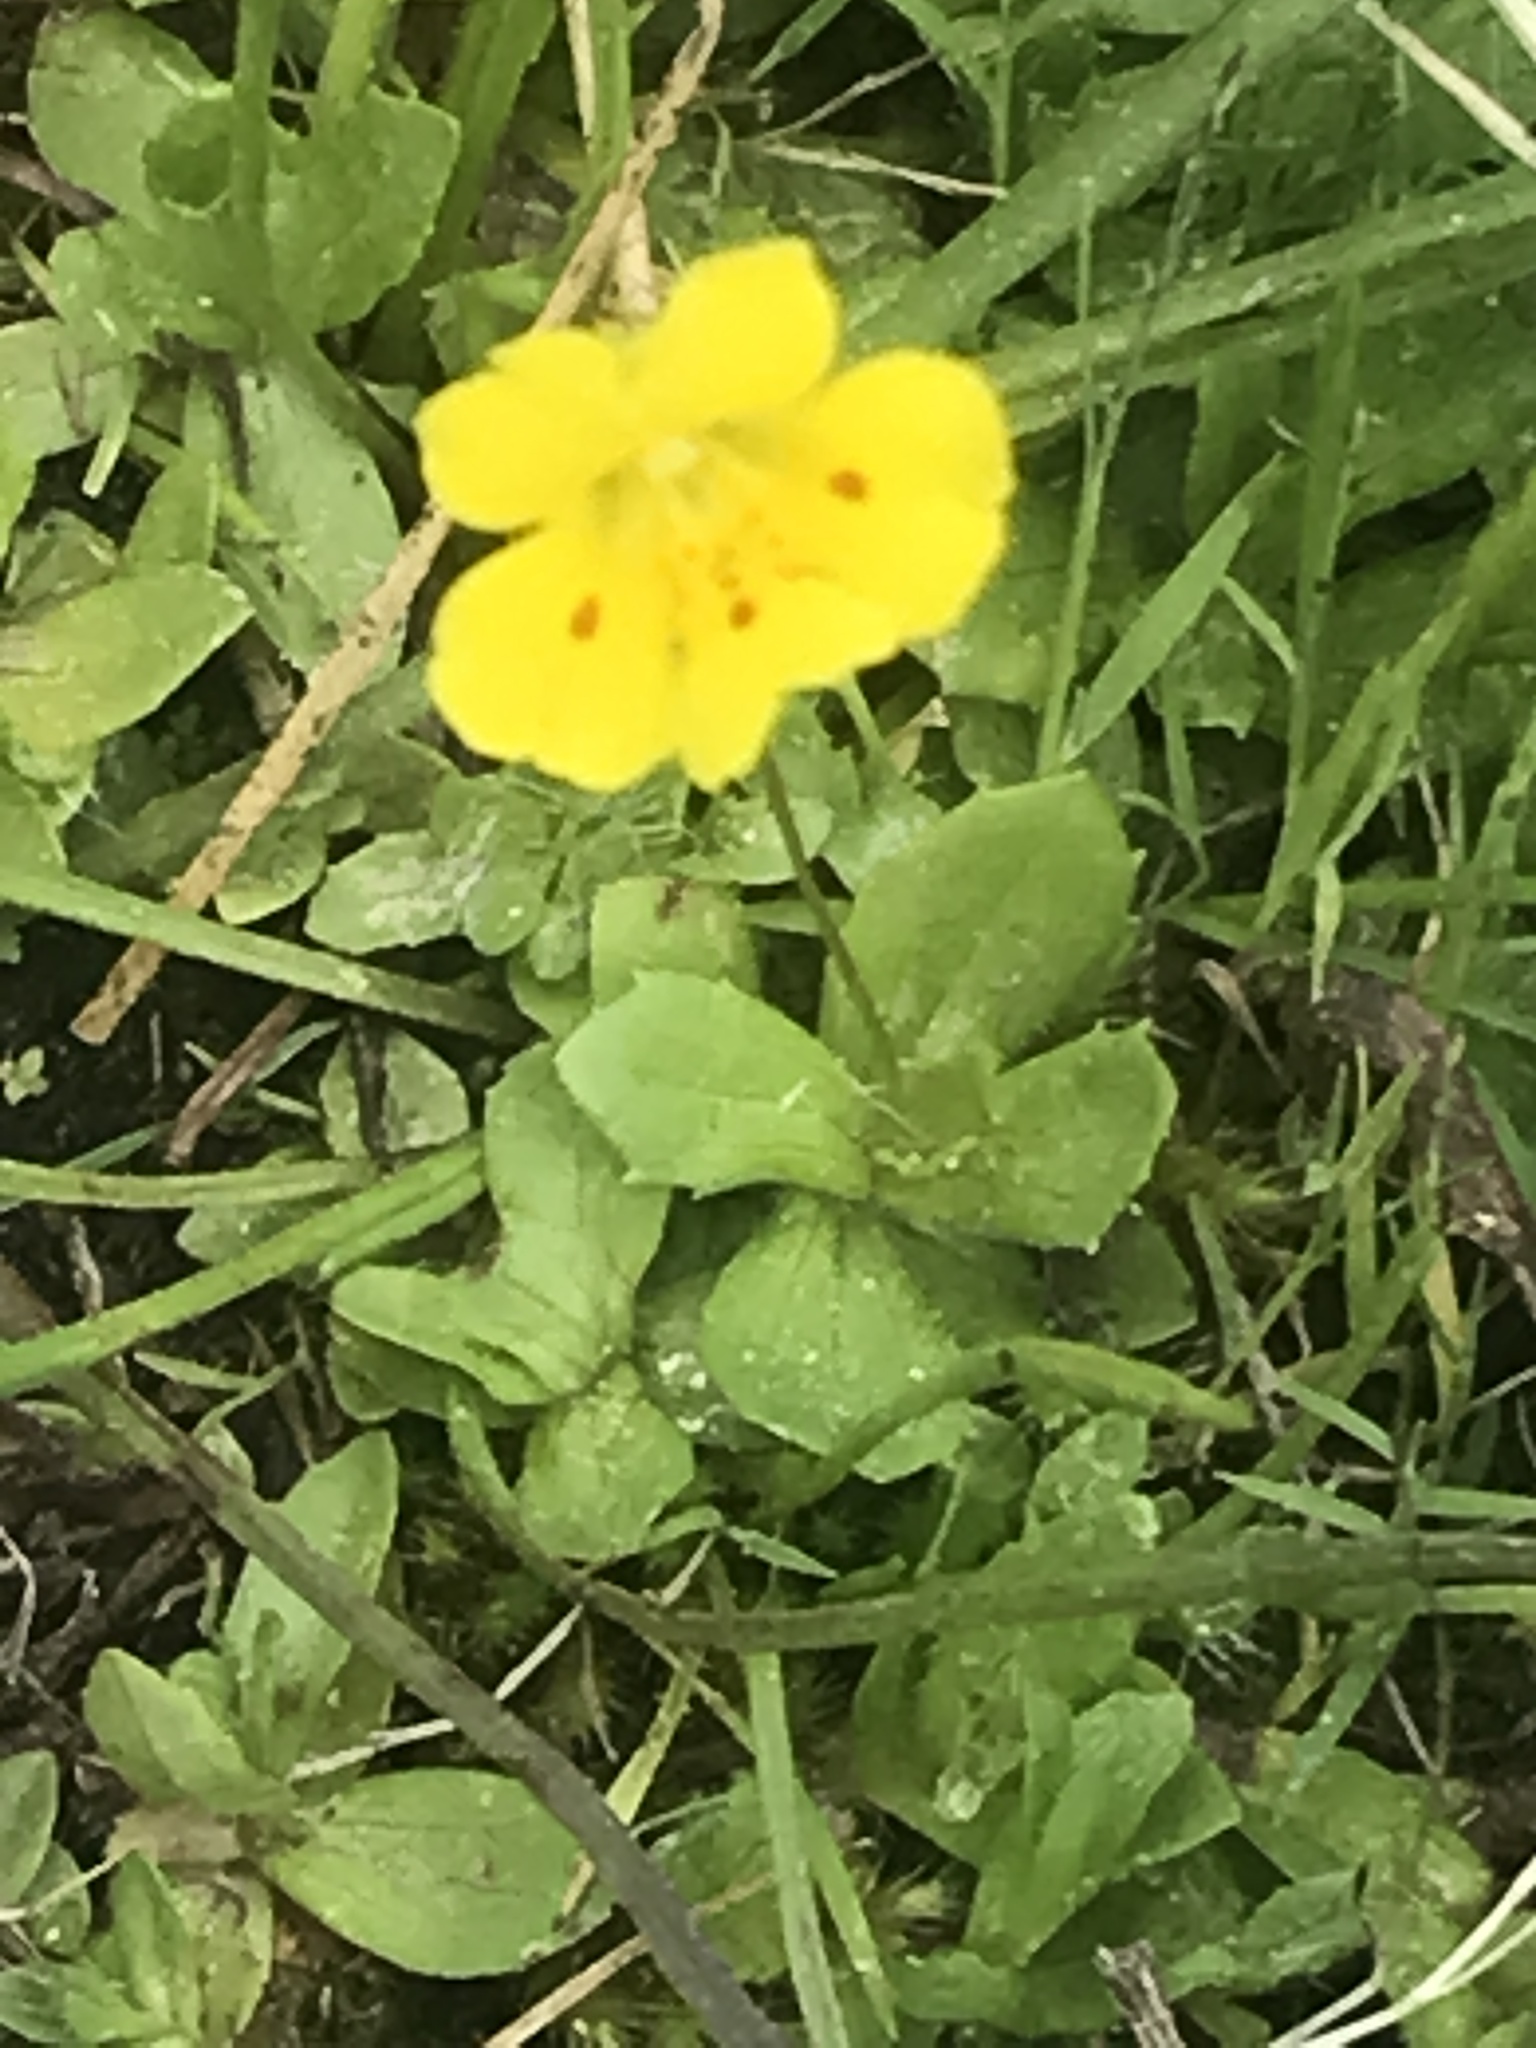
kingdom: Plantae
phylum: Tracheophyta
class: Magnoliopsida
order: Lamiales
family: Phrymaceae
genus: Erythranthe
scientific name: Erythranthe primuloides
